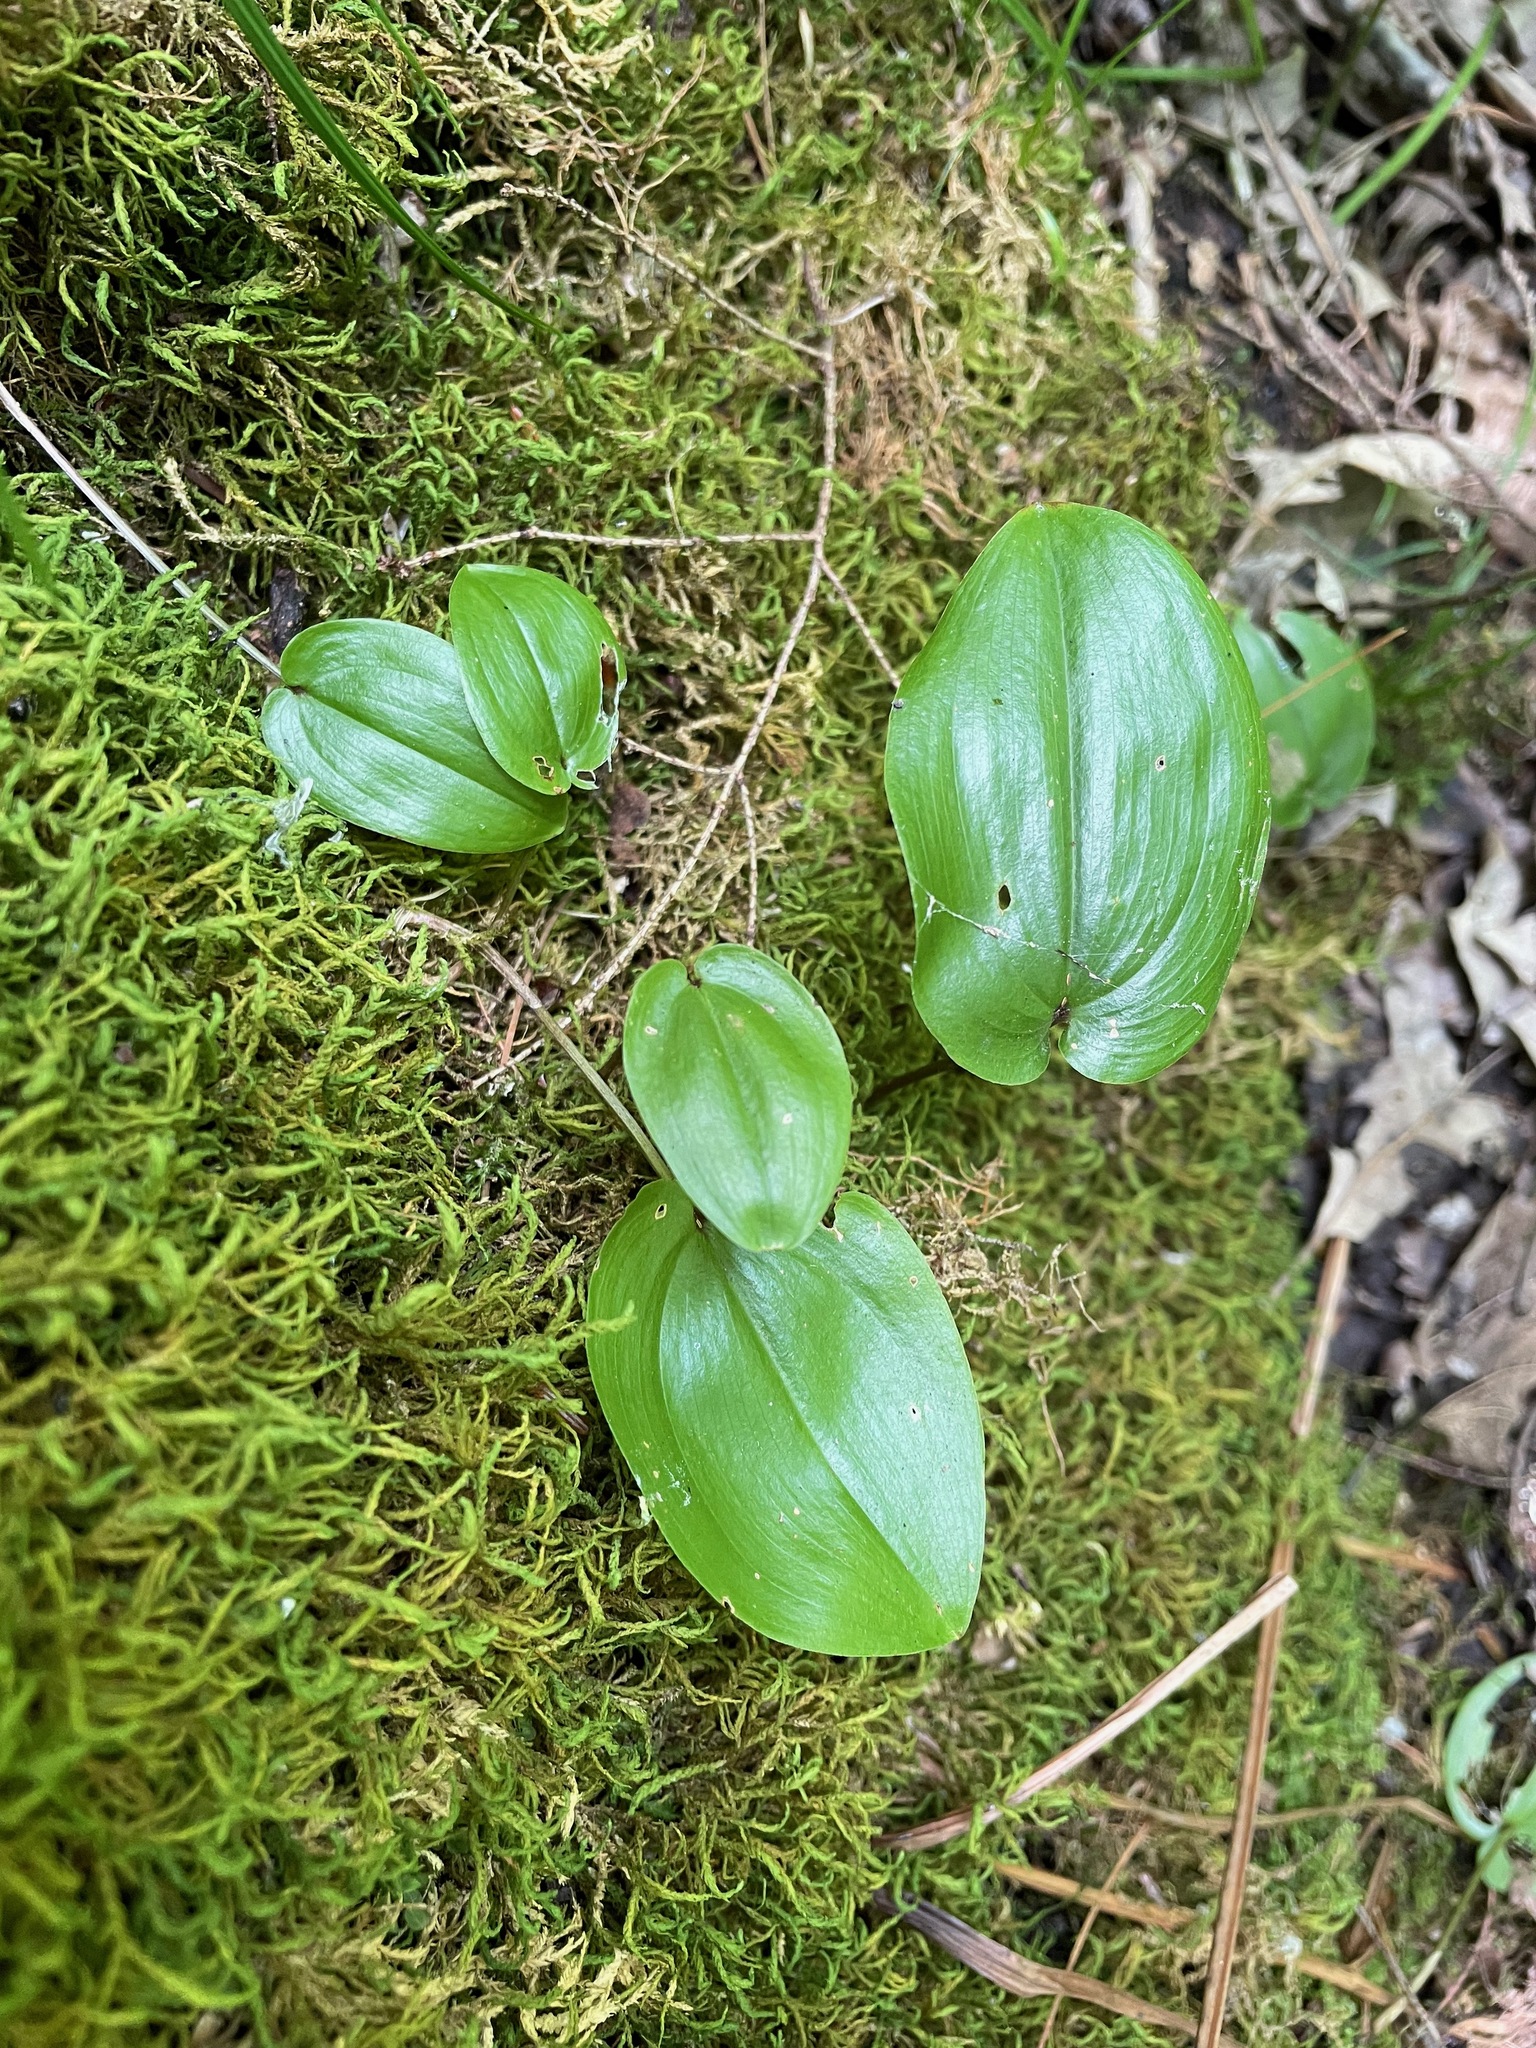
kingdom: Plantae
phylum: Tracheophyta
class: Liliopsida
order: Asparagales
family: Asparagaceae
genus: Maianthemum
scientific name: Maianthemum canadense
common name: False lily-of-the-valley
